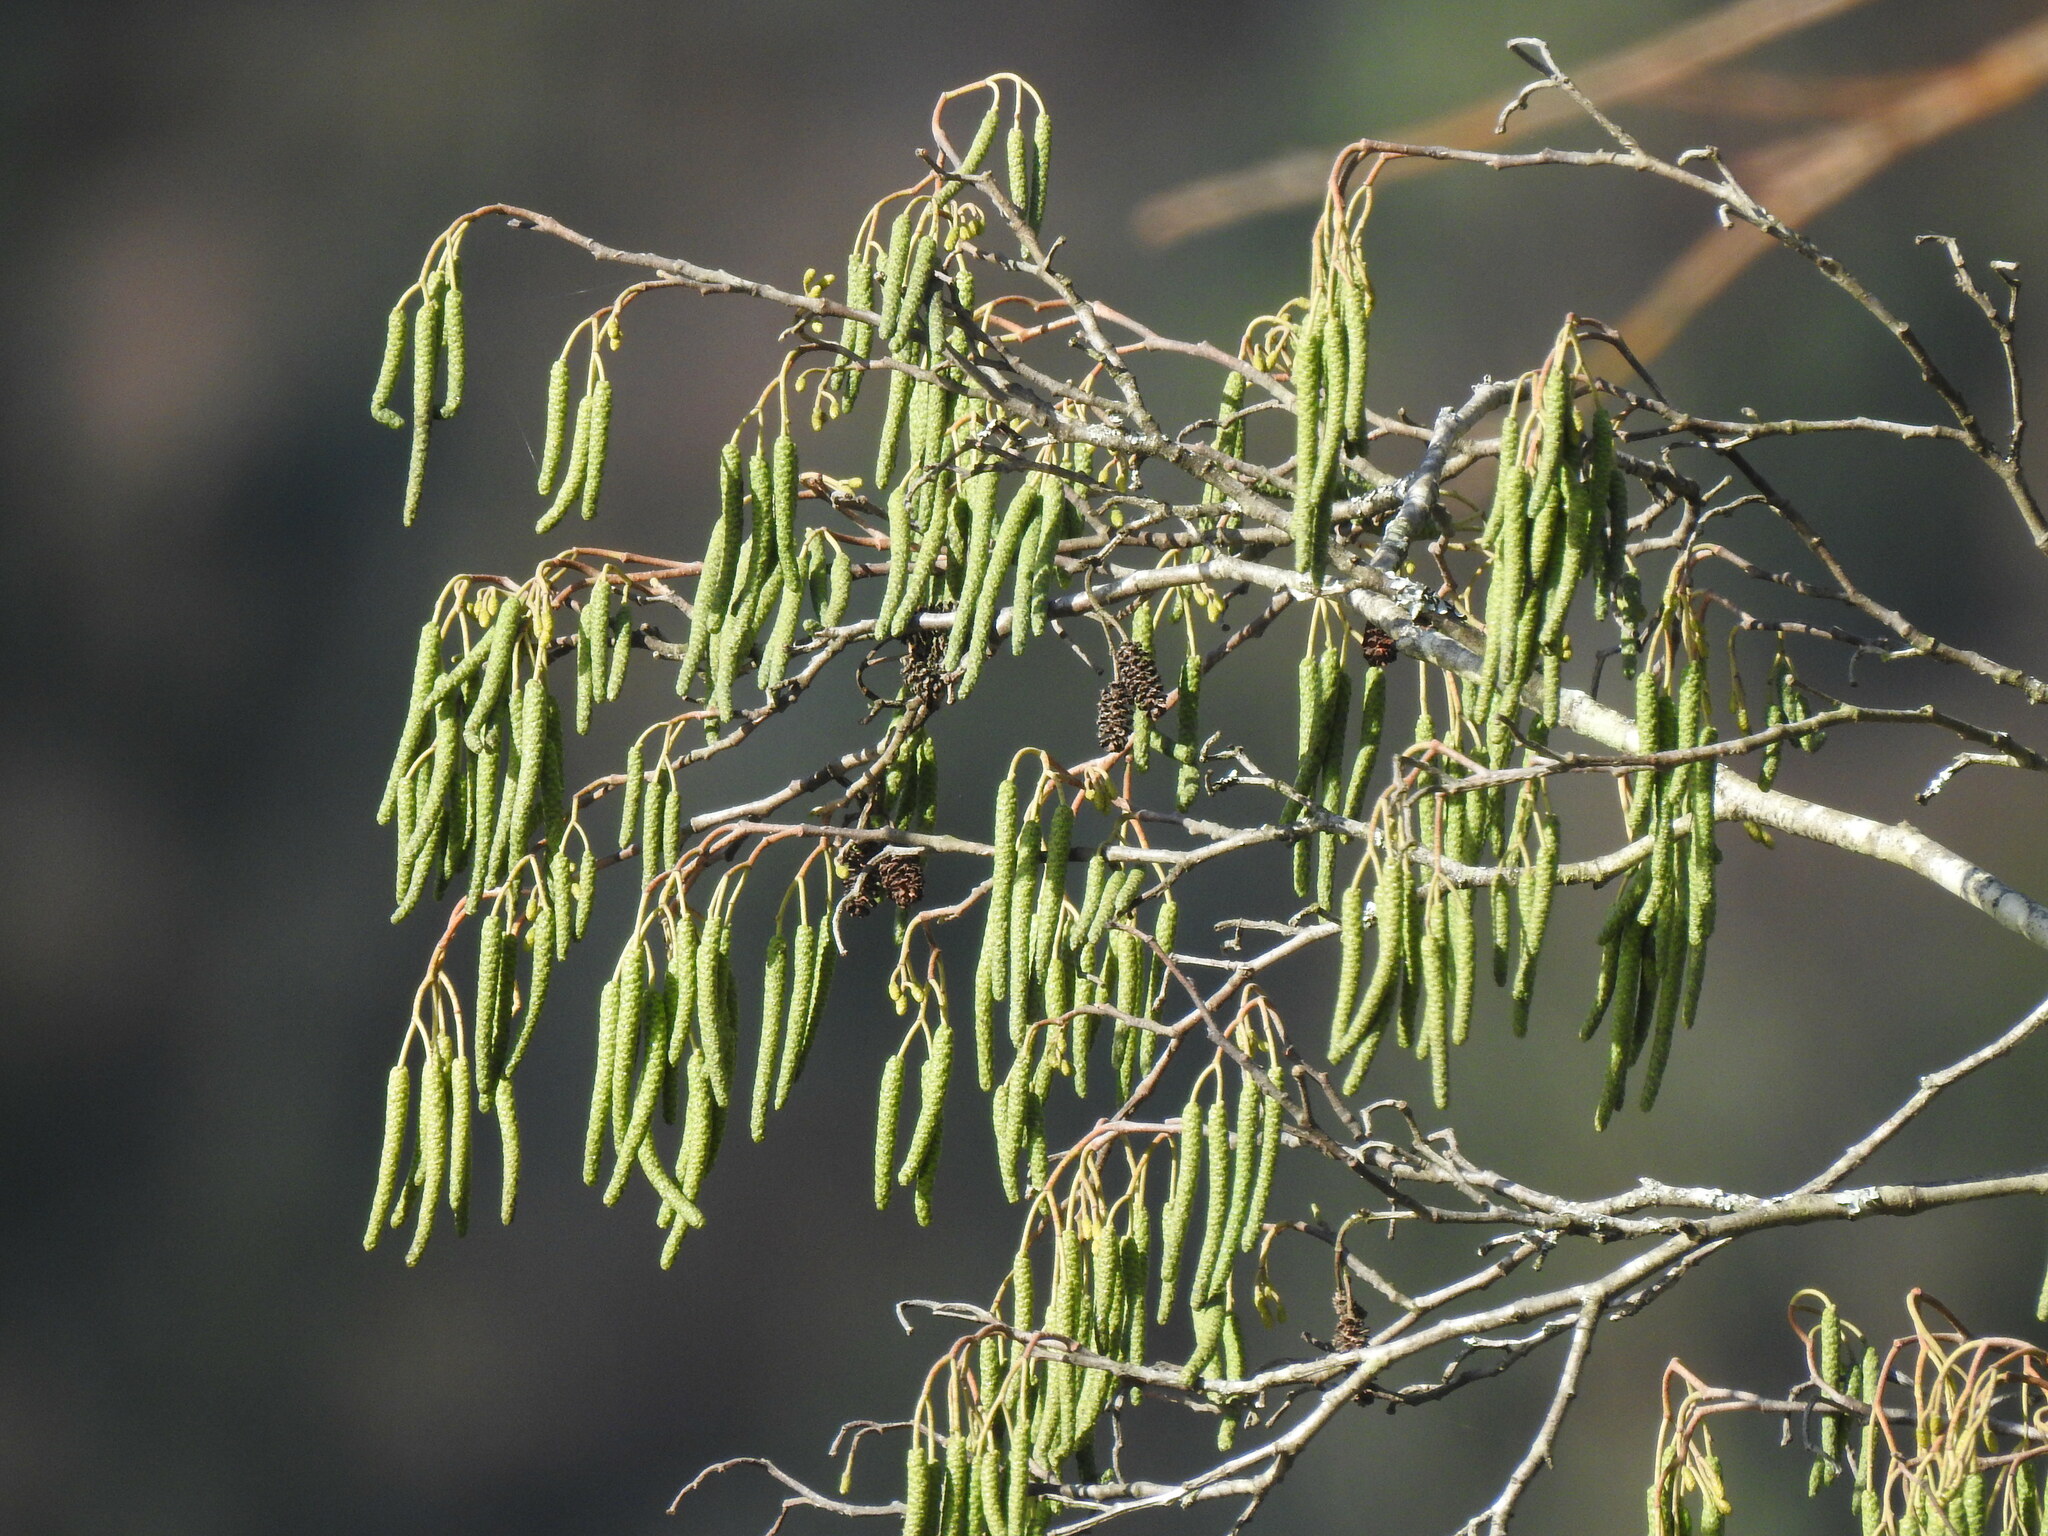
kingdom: Plantae
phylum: Tracheophyta
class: Magnoliopsida
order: Fagales
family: Betulaceae
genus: Alnus
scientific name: Alnus lusitanica
